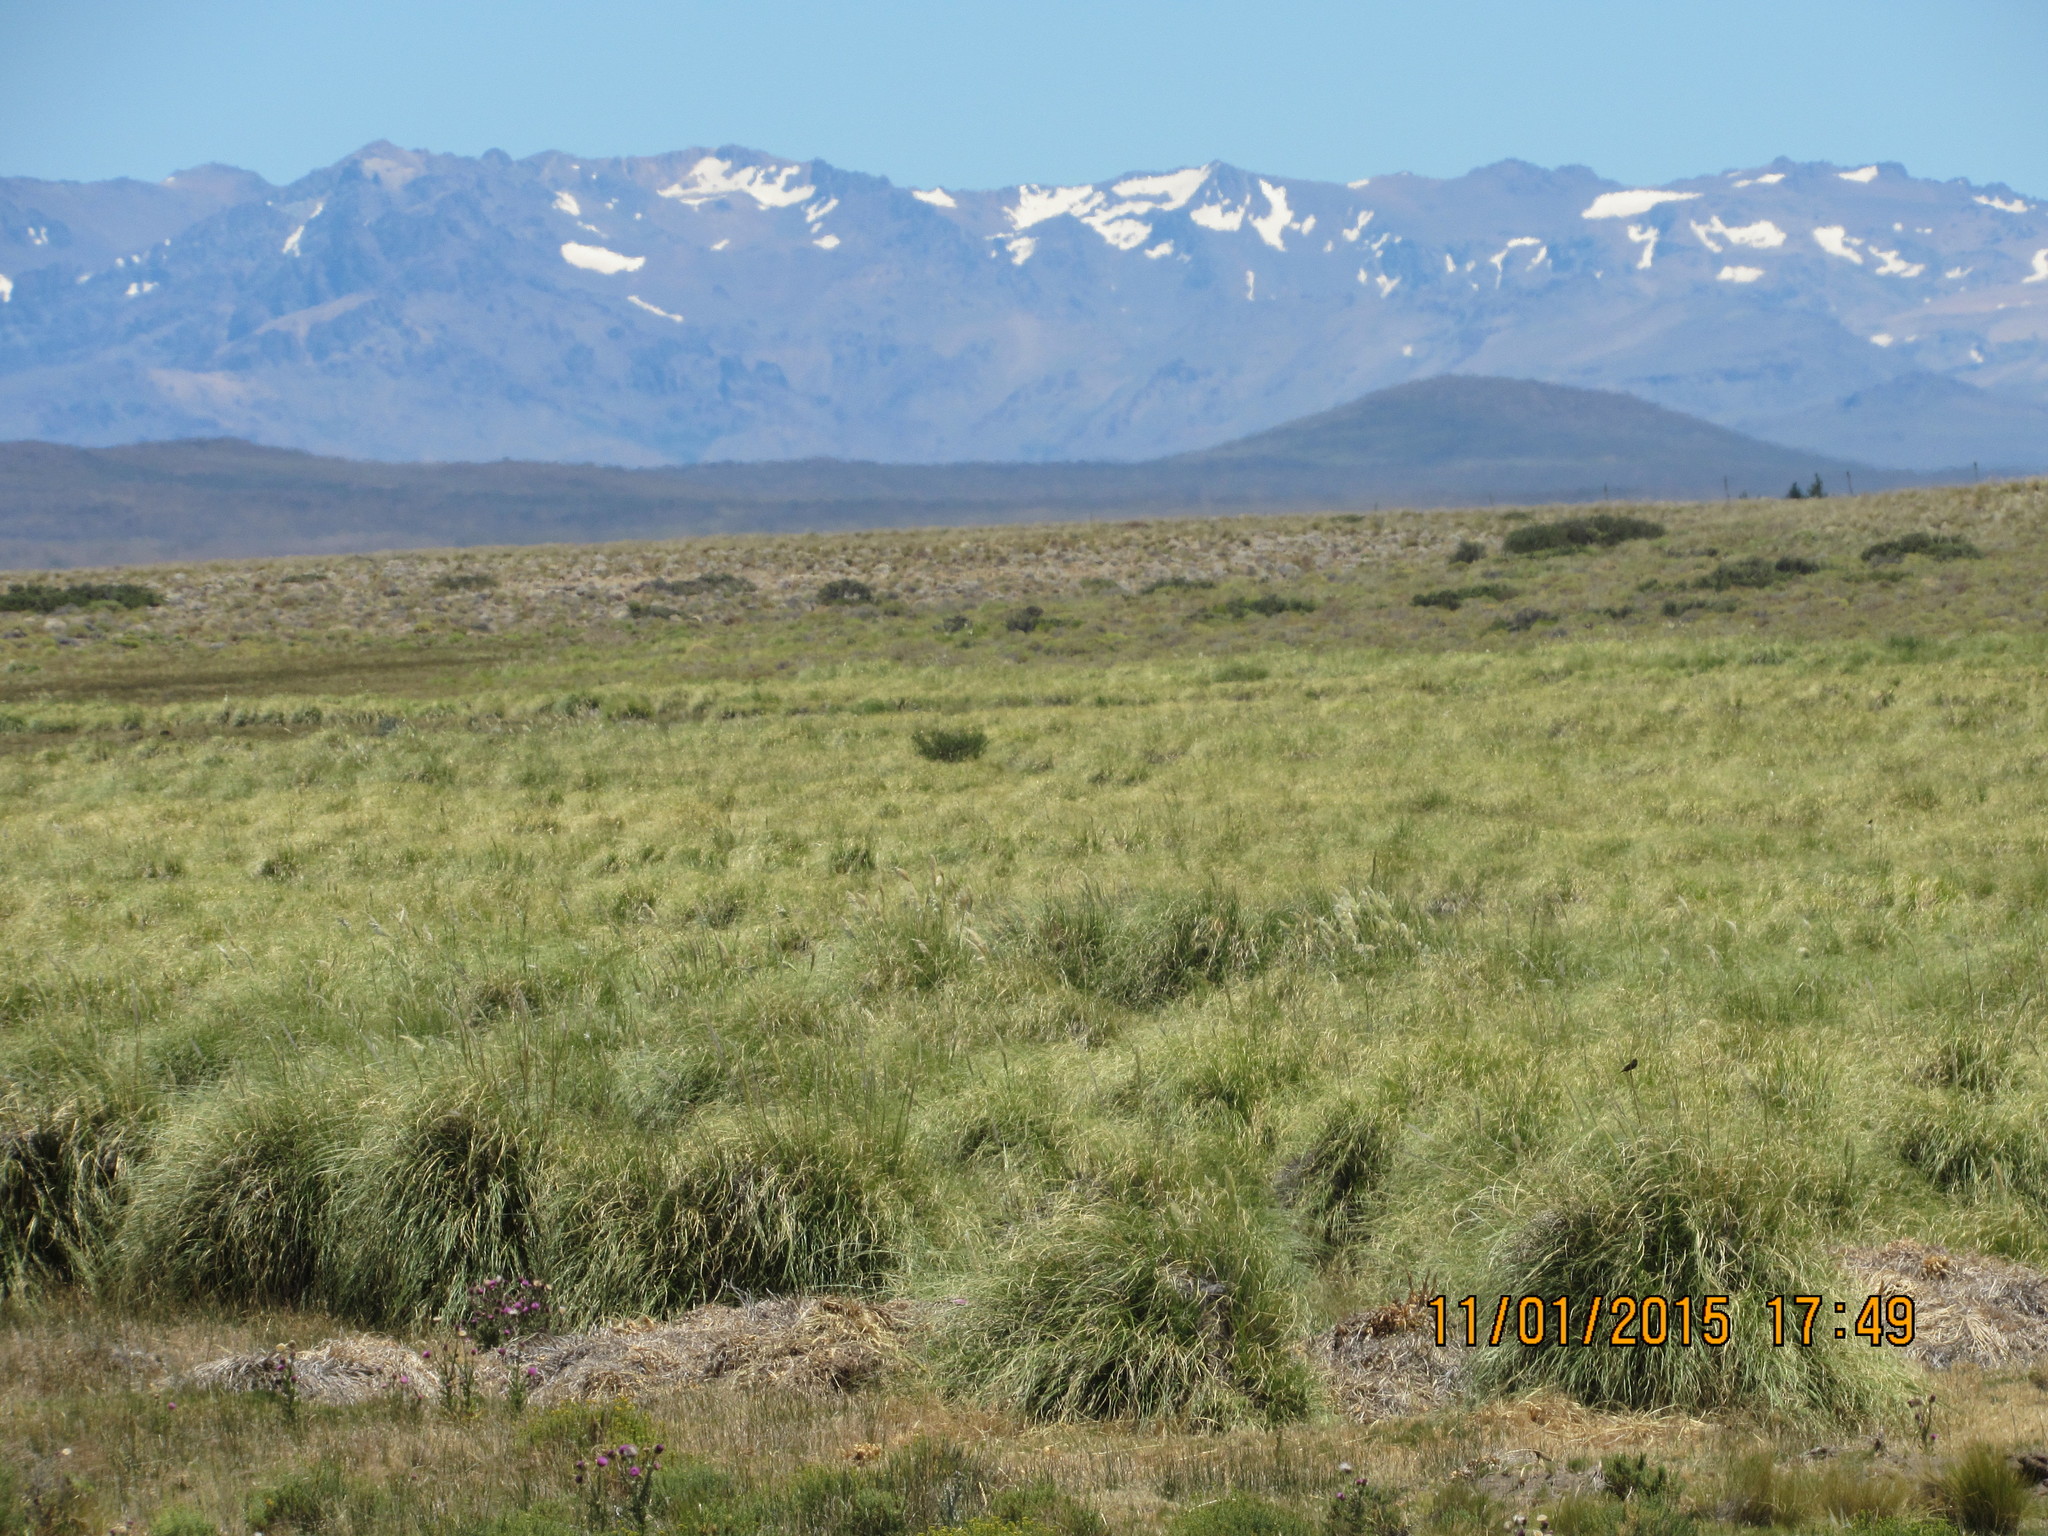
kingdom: Plantae
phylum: Tracheophyta
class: Liliopsida
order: Poales
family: Poaceae
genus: Cortaderia
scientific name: Cortaderia selloana
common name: Uruguayan pampas grass
